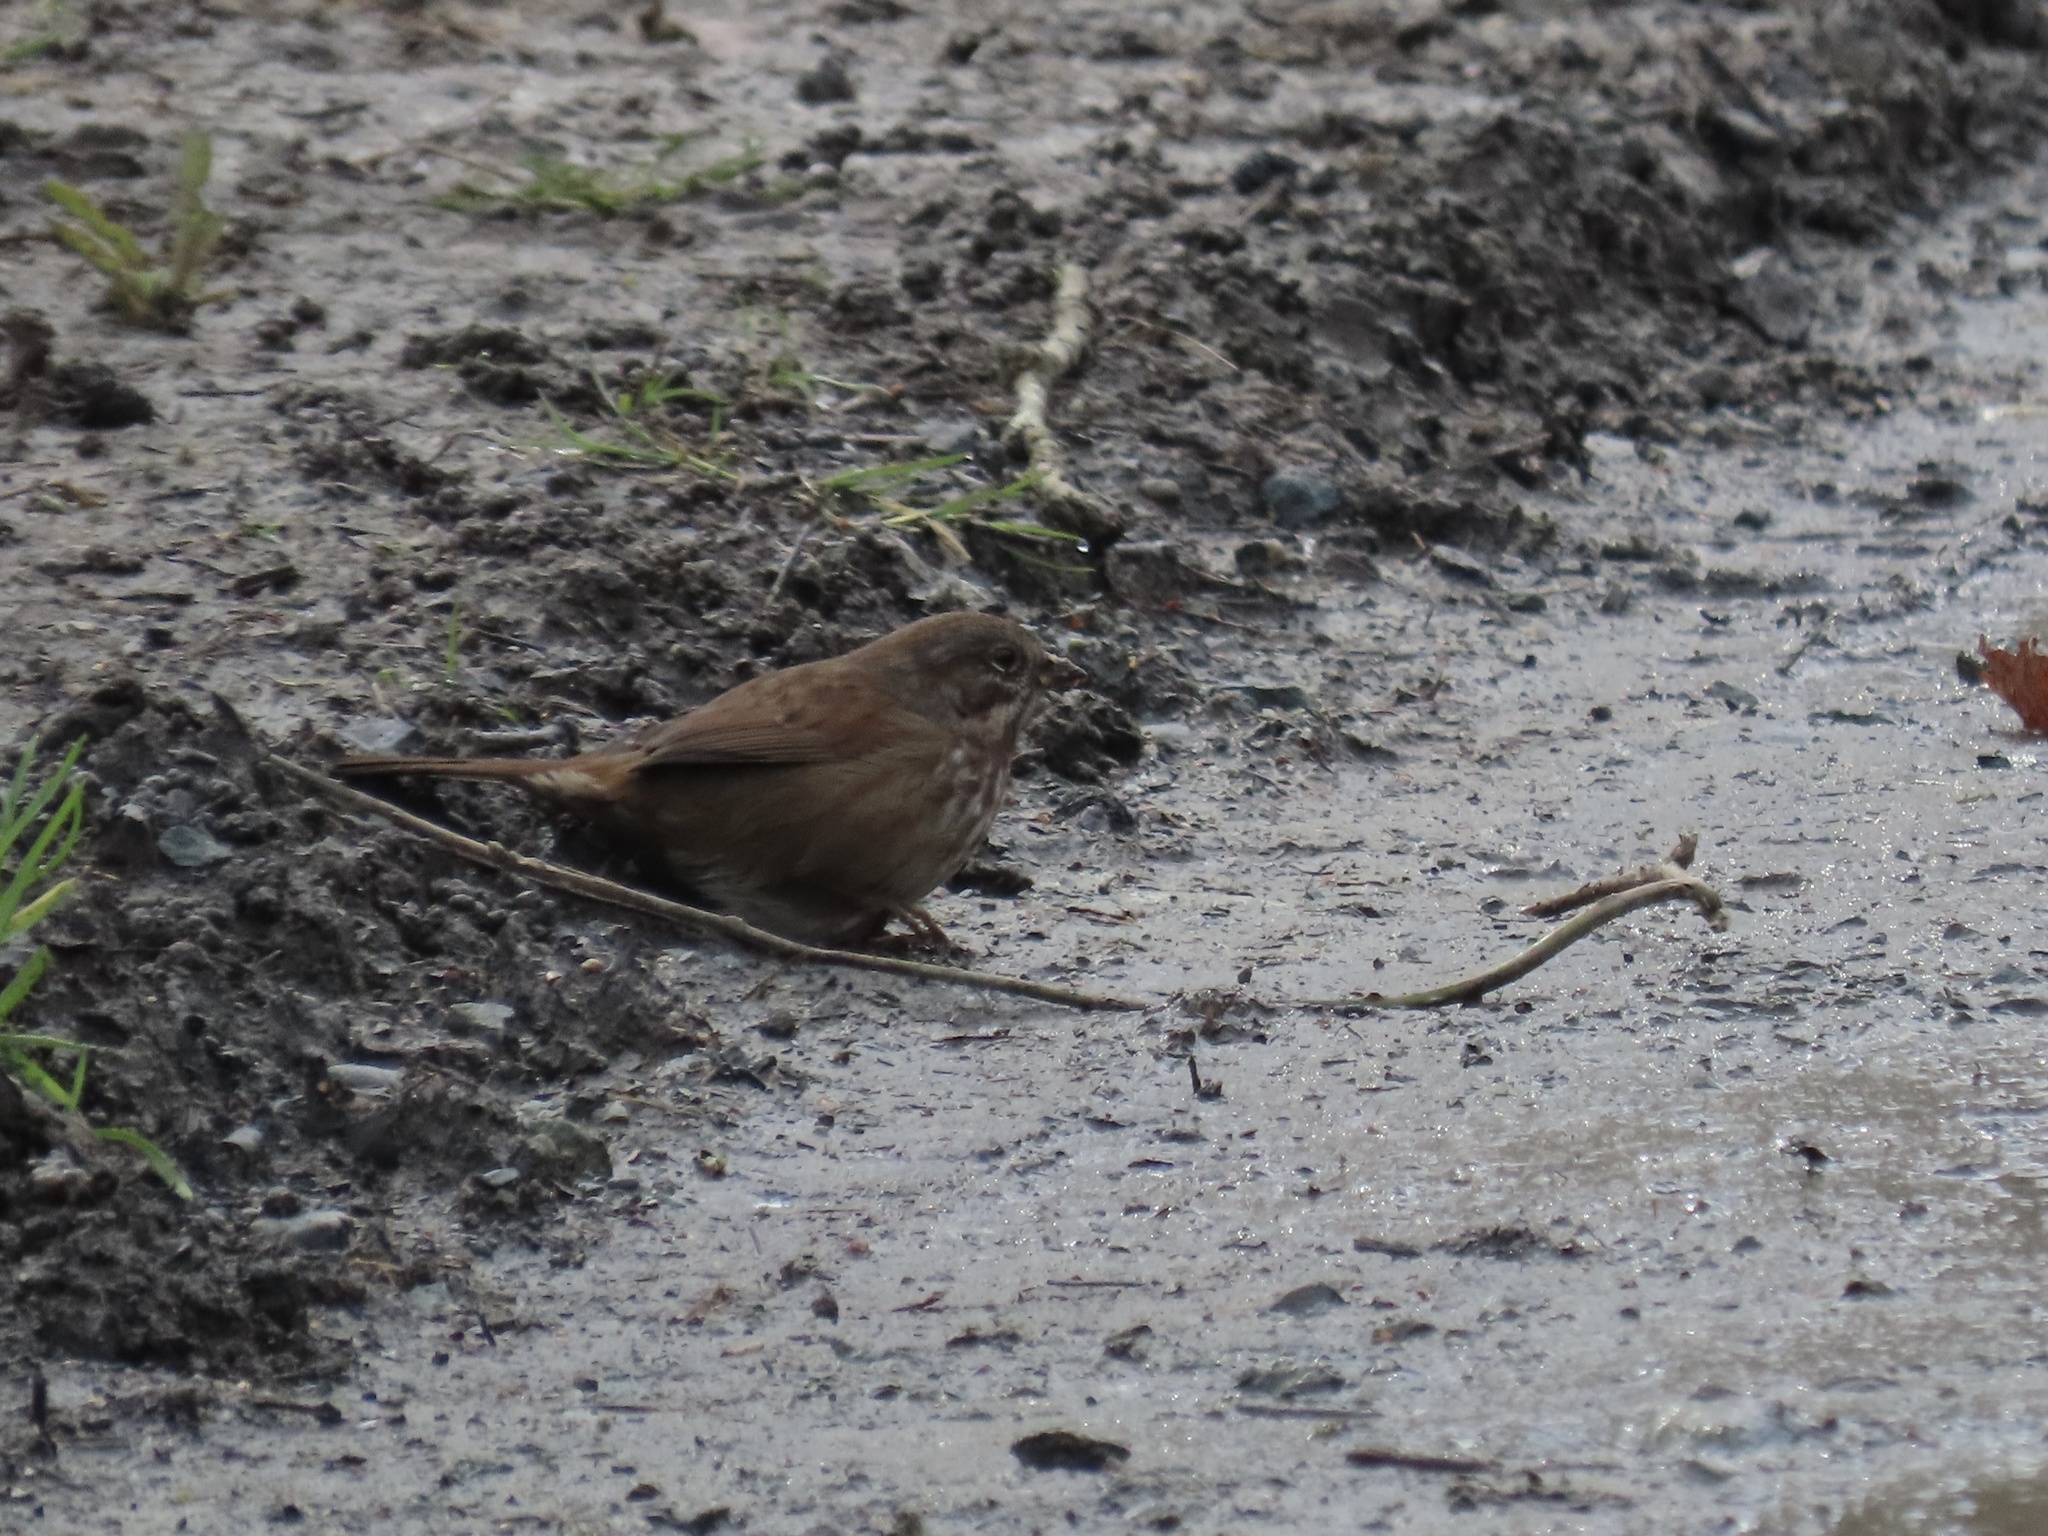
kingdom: Animalia
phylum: Chordata
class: Aves
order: Passeriformes
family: Passerellidae
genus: Melospiza
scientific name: Melospiza melodia
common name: Song sparrow
